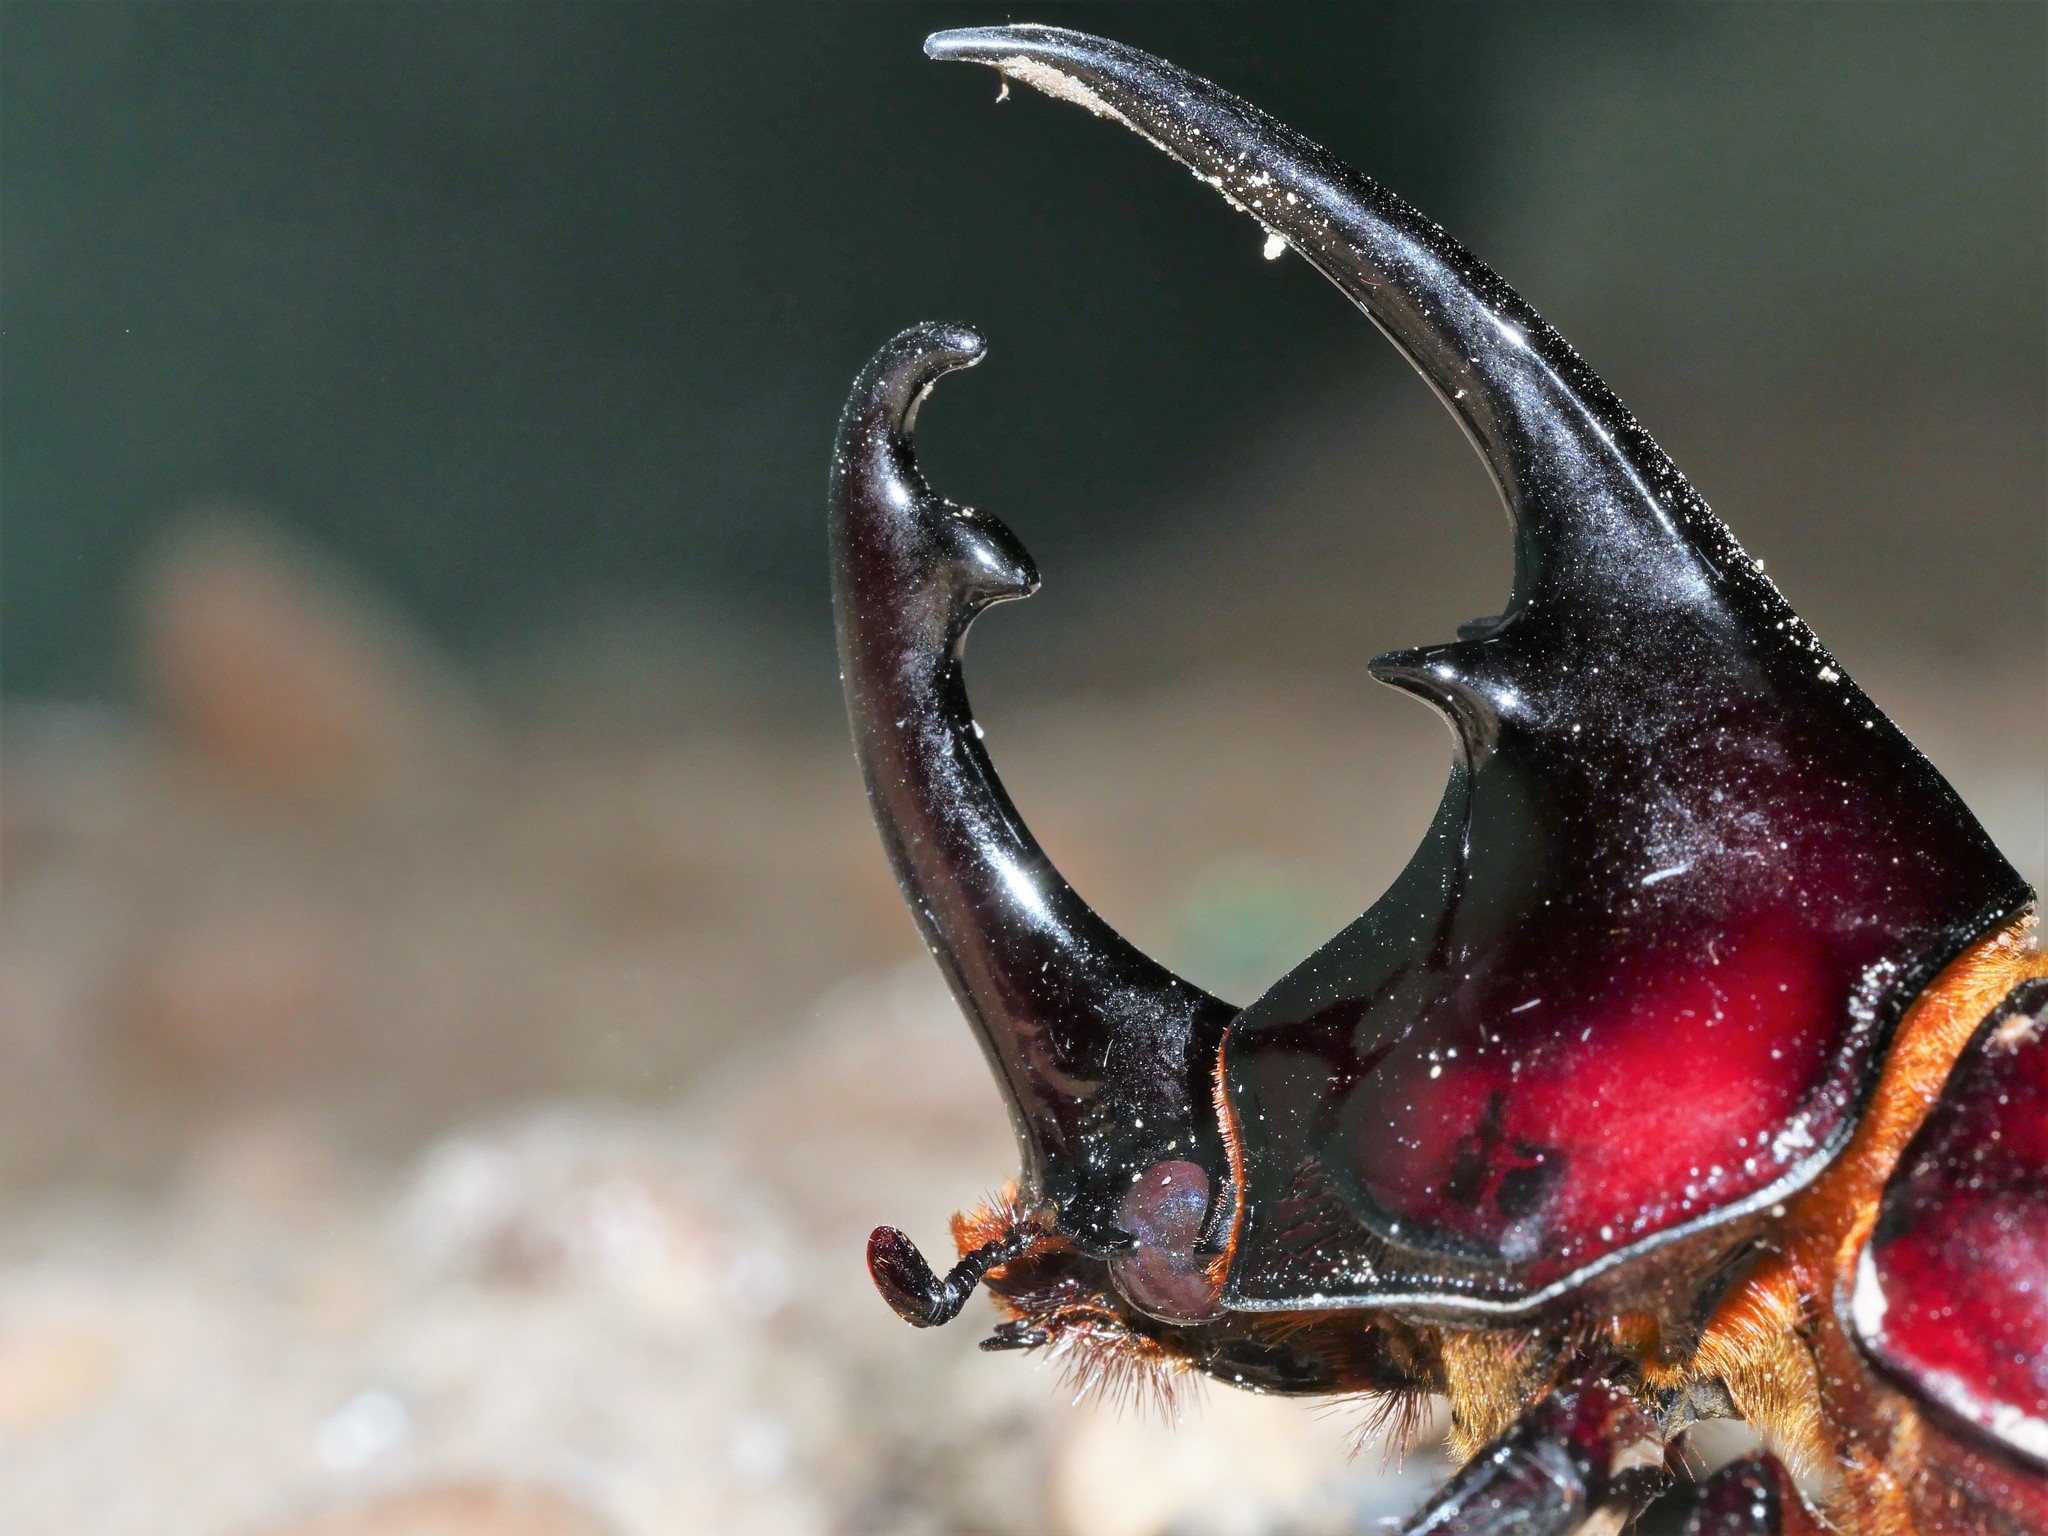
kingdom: Animalia
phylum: Arthropoda
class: Insecta
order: Coleoptera
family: Scarabaeidae
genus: Augosoma
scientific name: Augosoma centaurus
